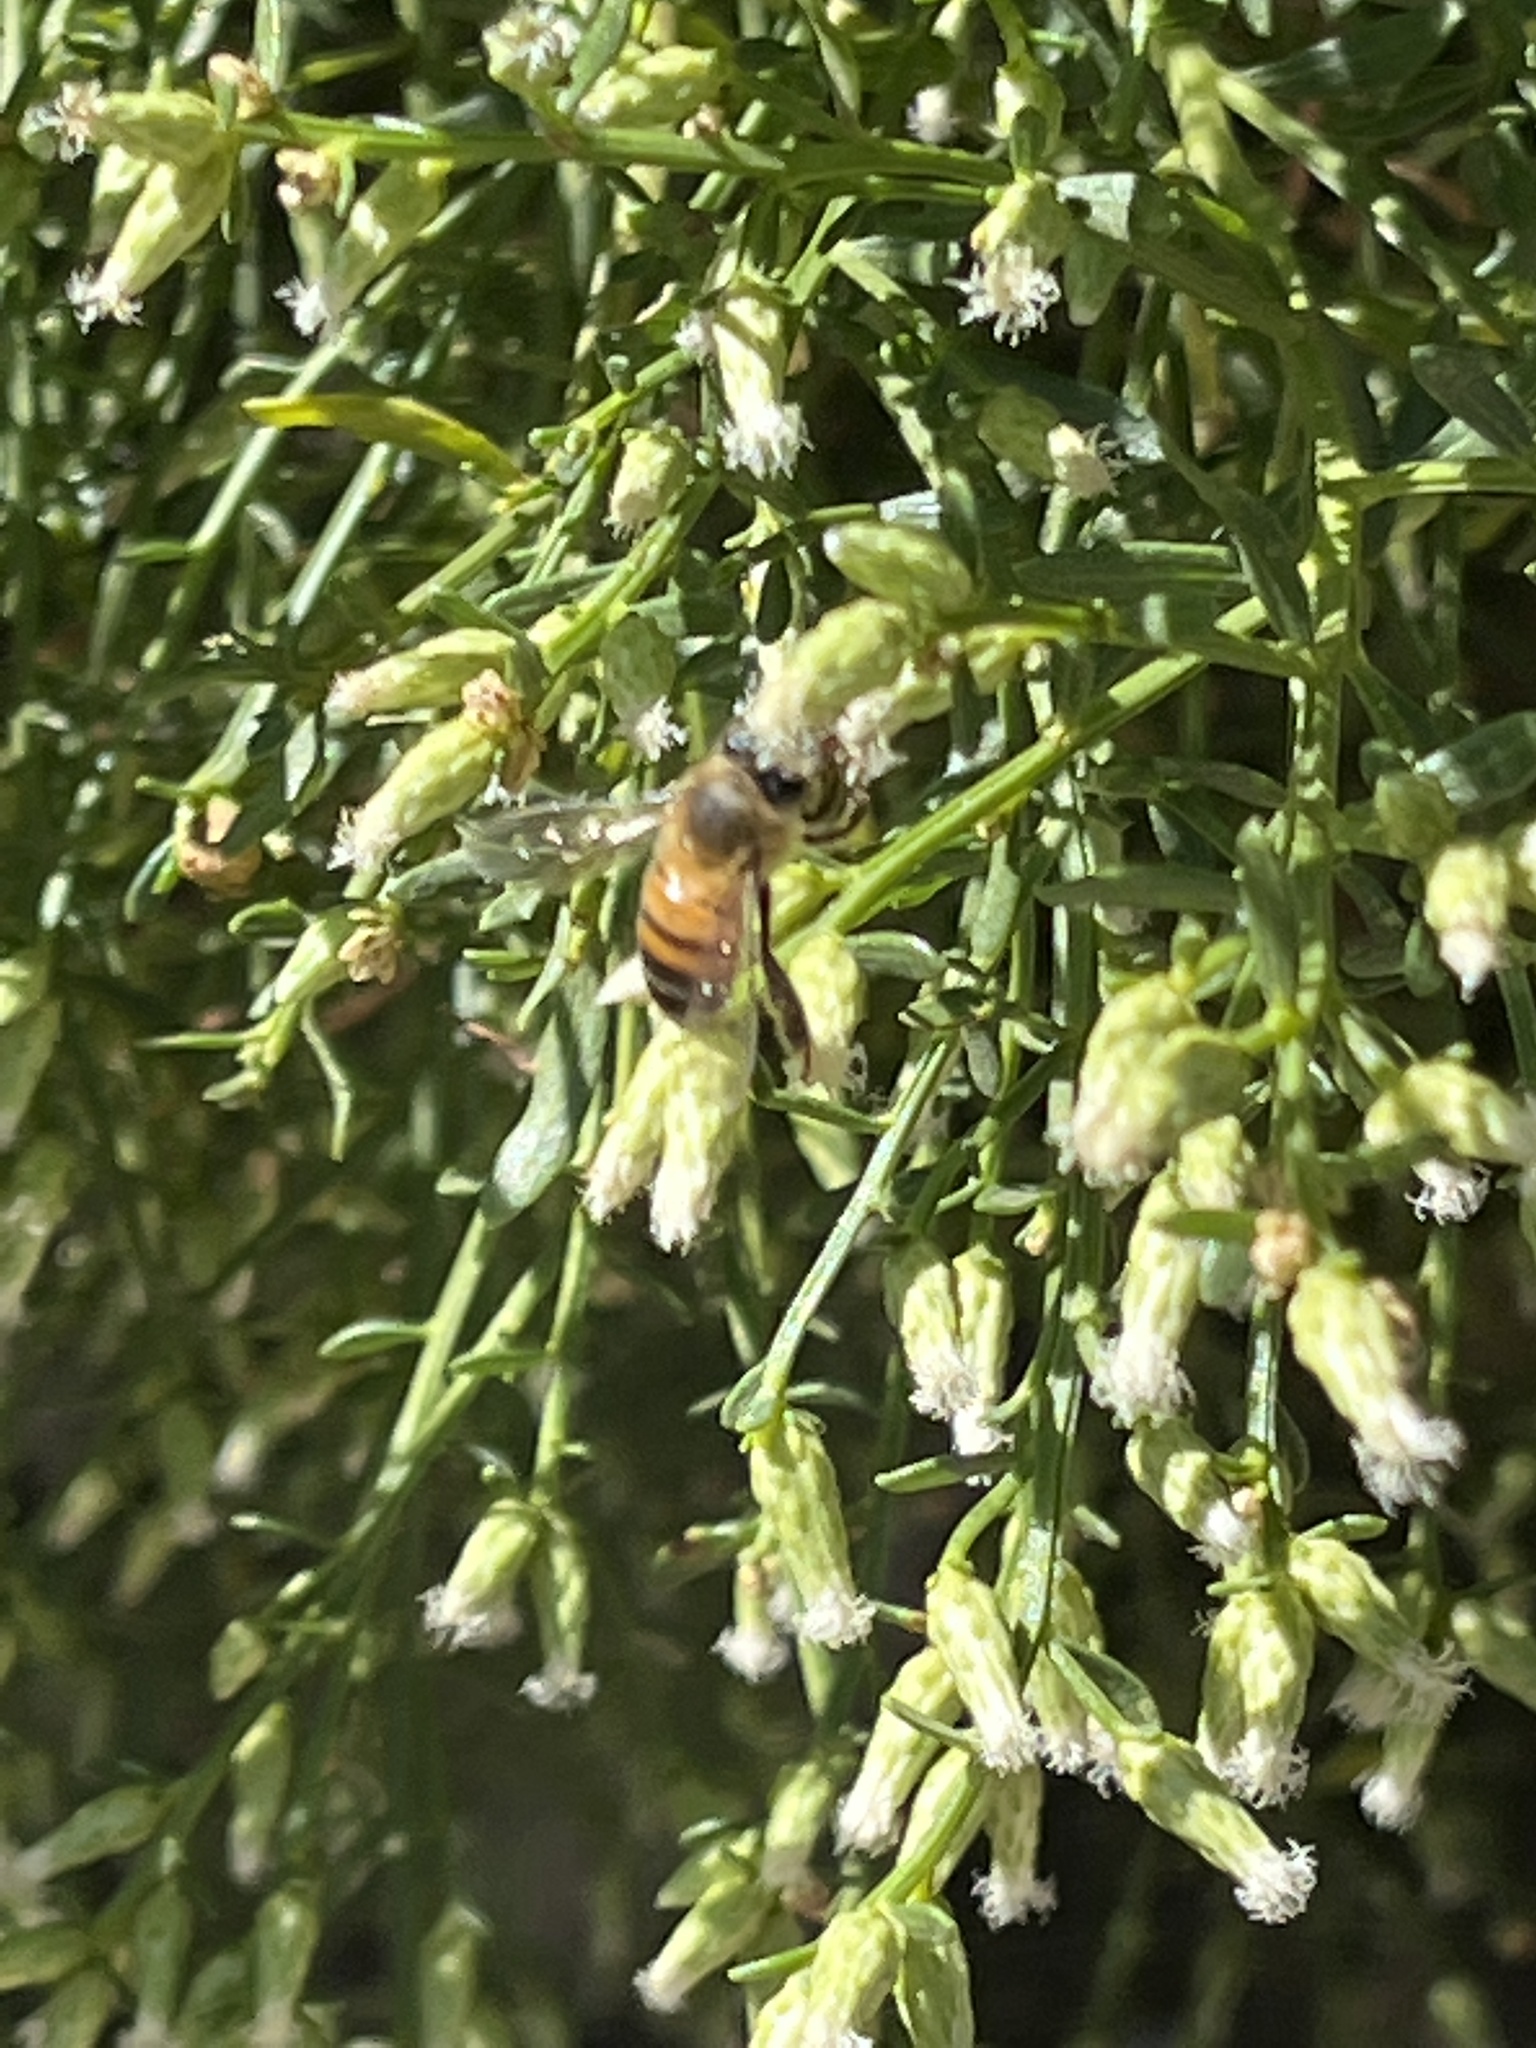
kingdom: Animalia
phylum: Arthropoda
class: Insecta
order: Hymenoptera
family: Apidae
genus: Apis
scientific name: Apis mellifera
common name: Honey bee
